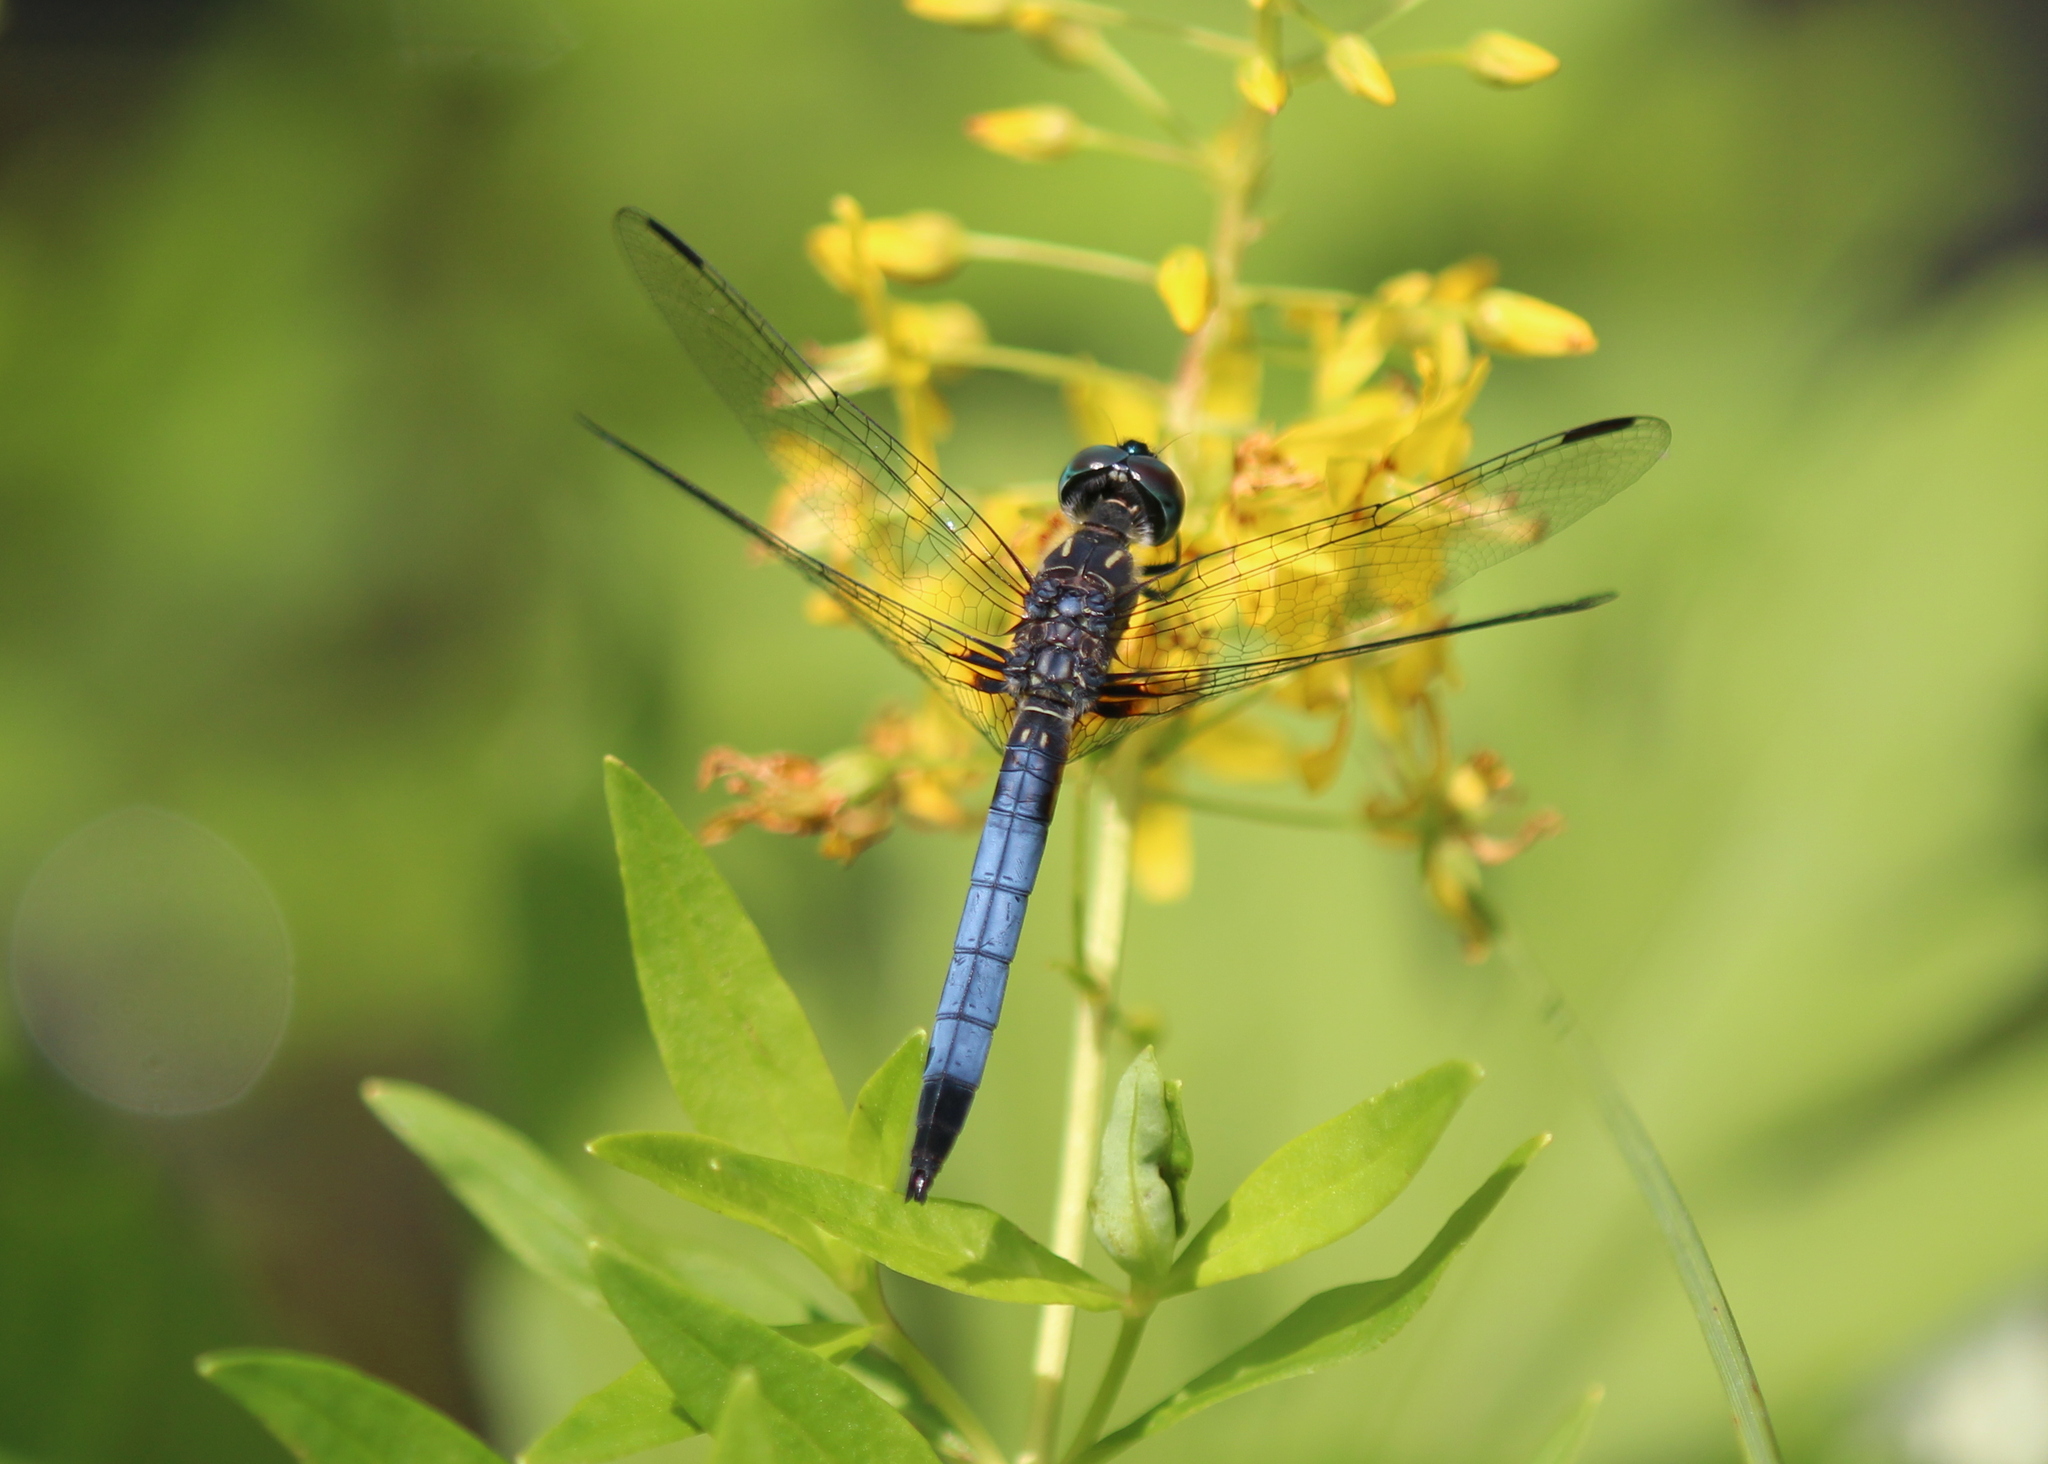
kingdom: Animalia
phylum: Arthropoda
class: Insecta
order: Odonata
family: Libellulidae
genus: Pachydiplax
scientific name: Pachydiplax longipennis
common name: Blue dasher
